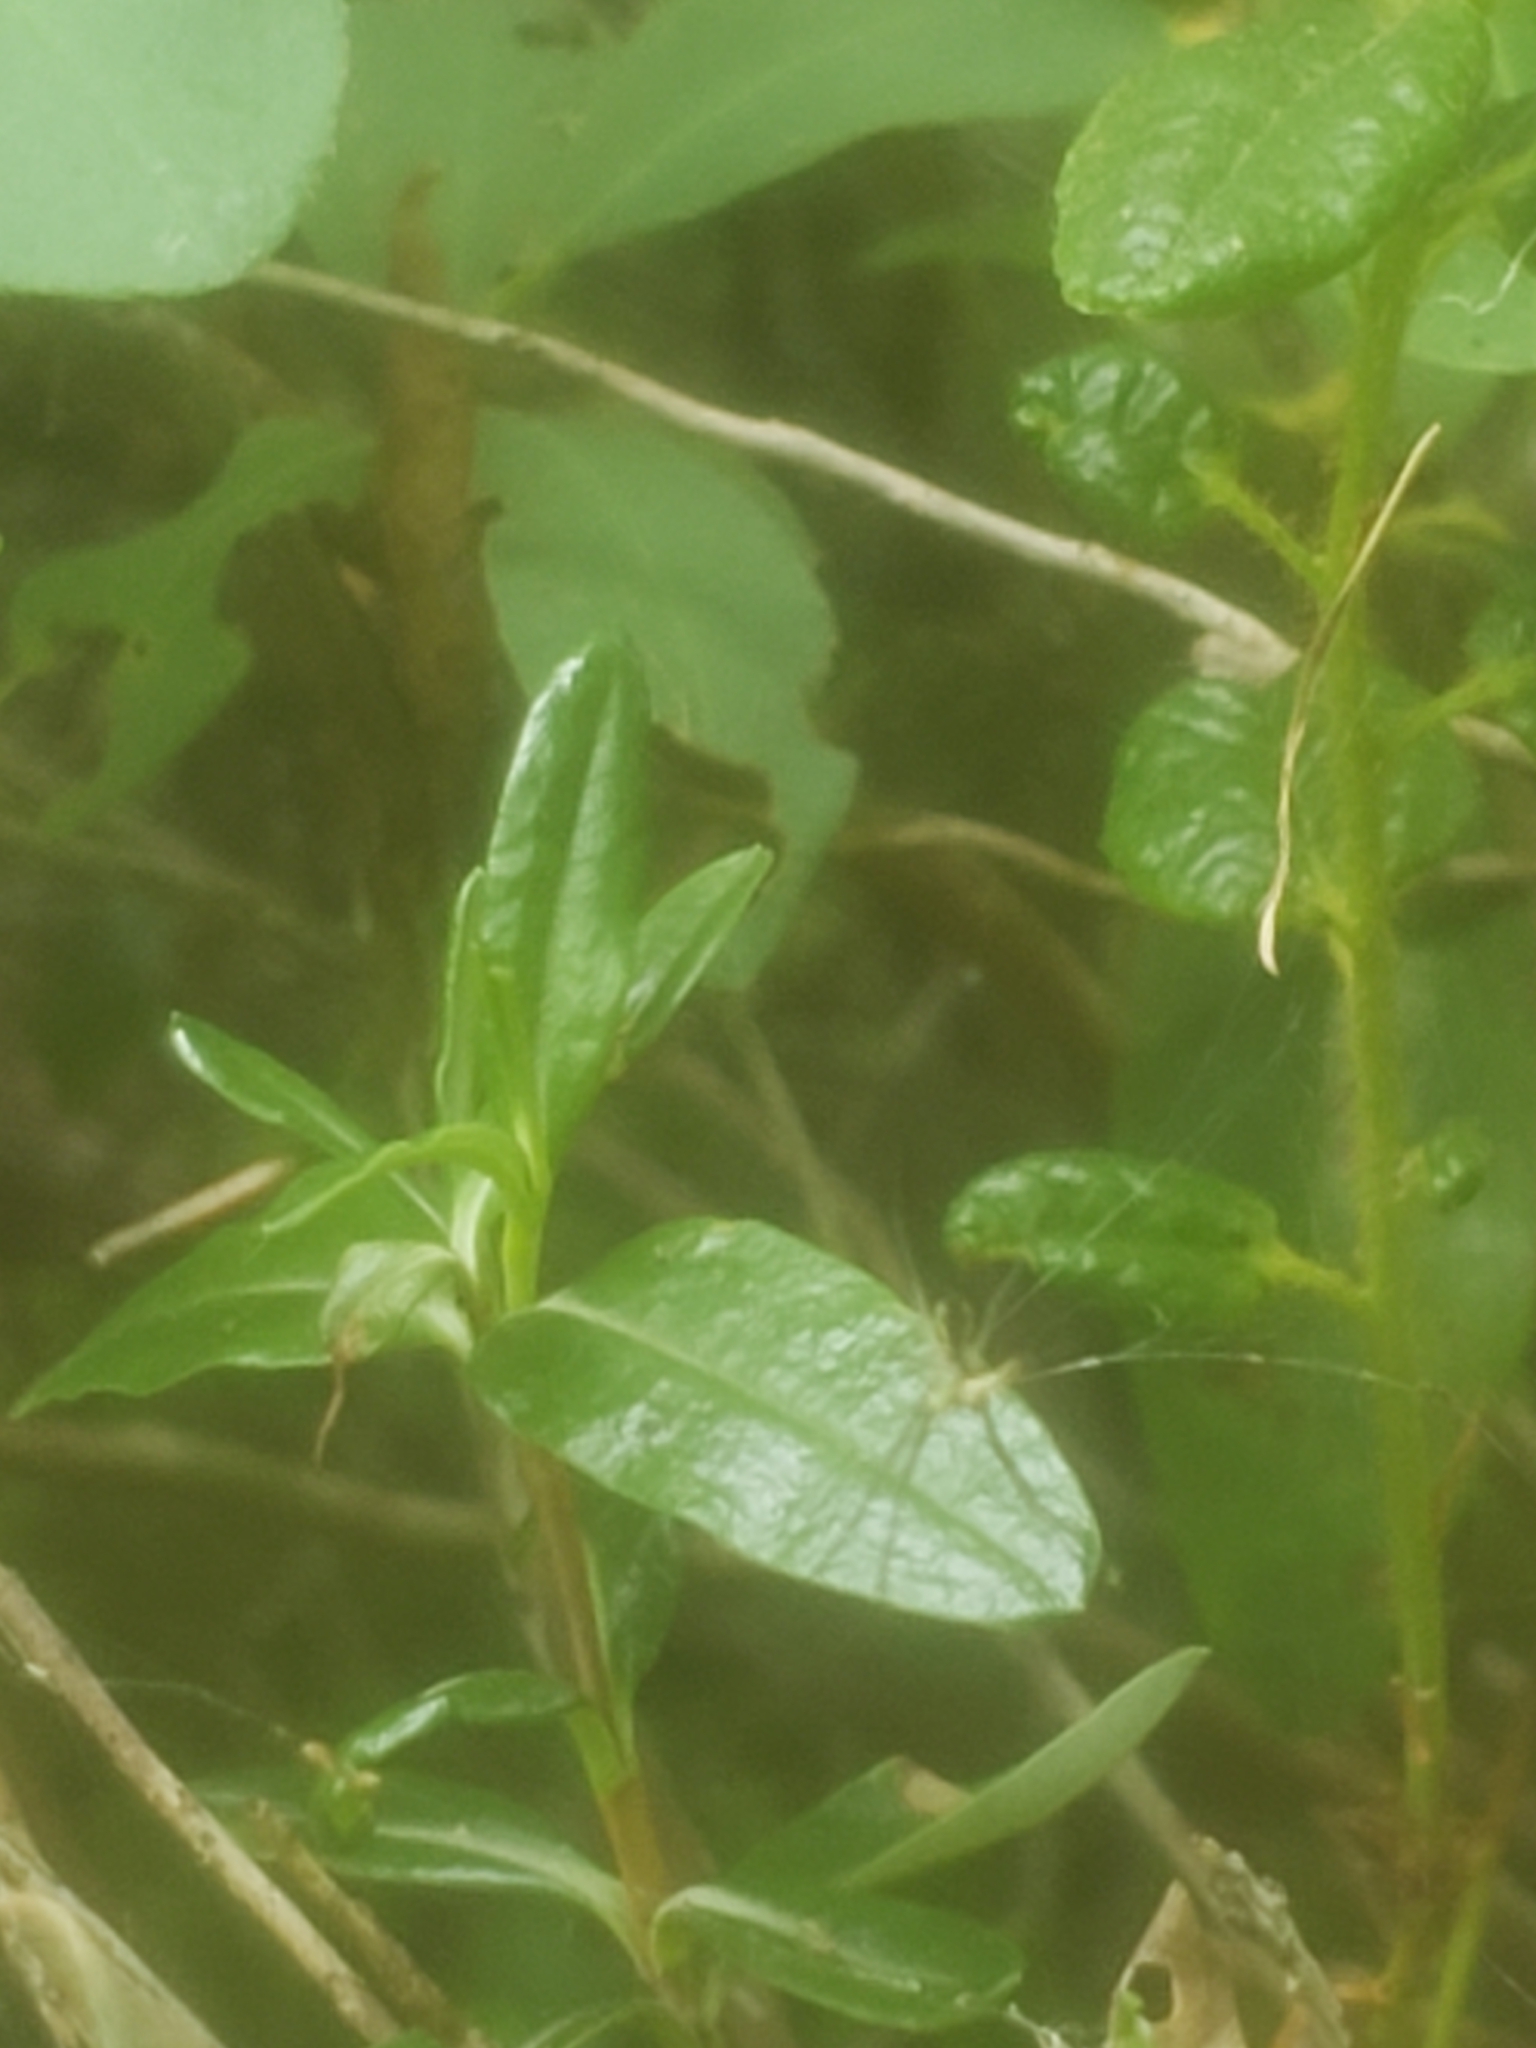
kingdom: Plantae
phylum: Tracheophyta
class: Magnoliopsida
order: Ericales
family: Ericaceae
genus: Kalmia
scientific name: Kalmia polifolia
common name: Bog-laurel
